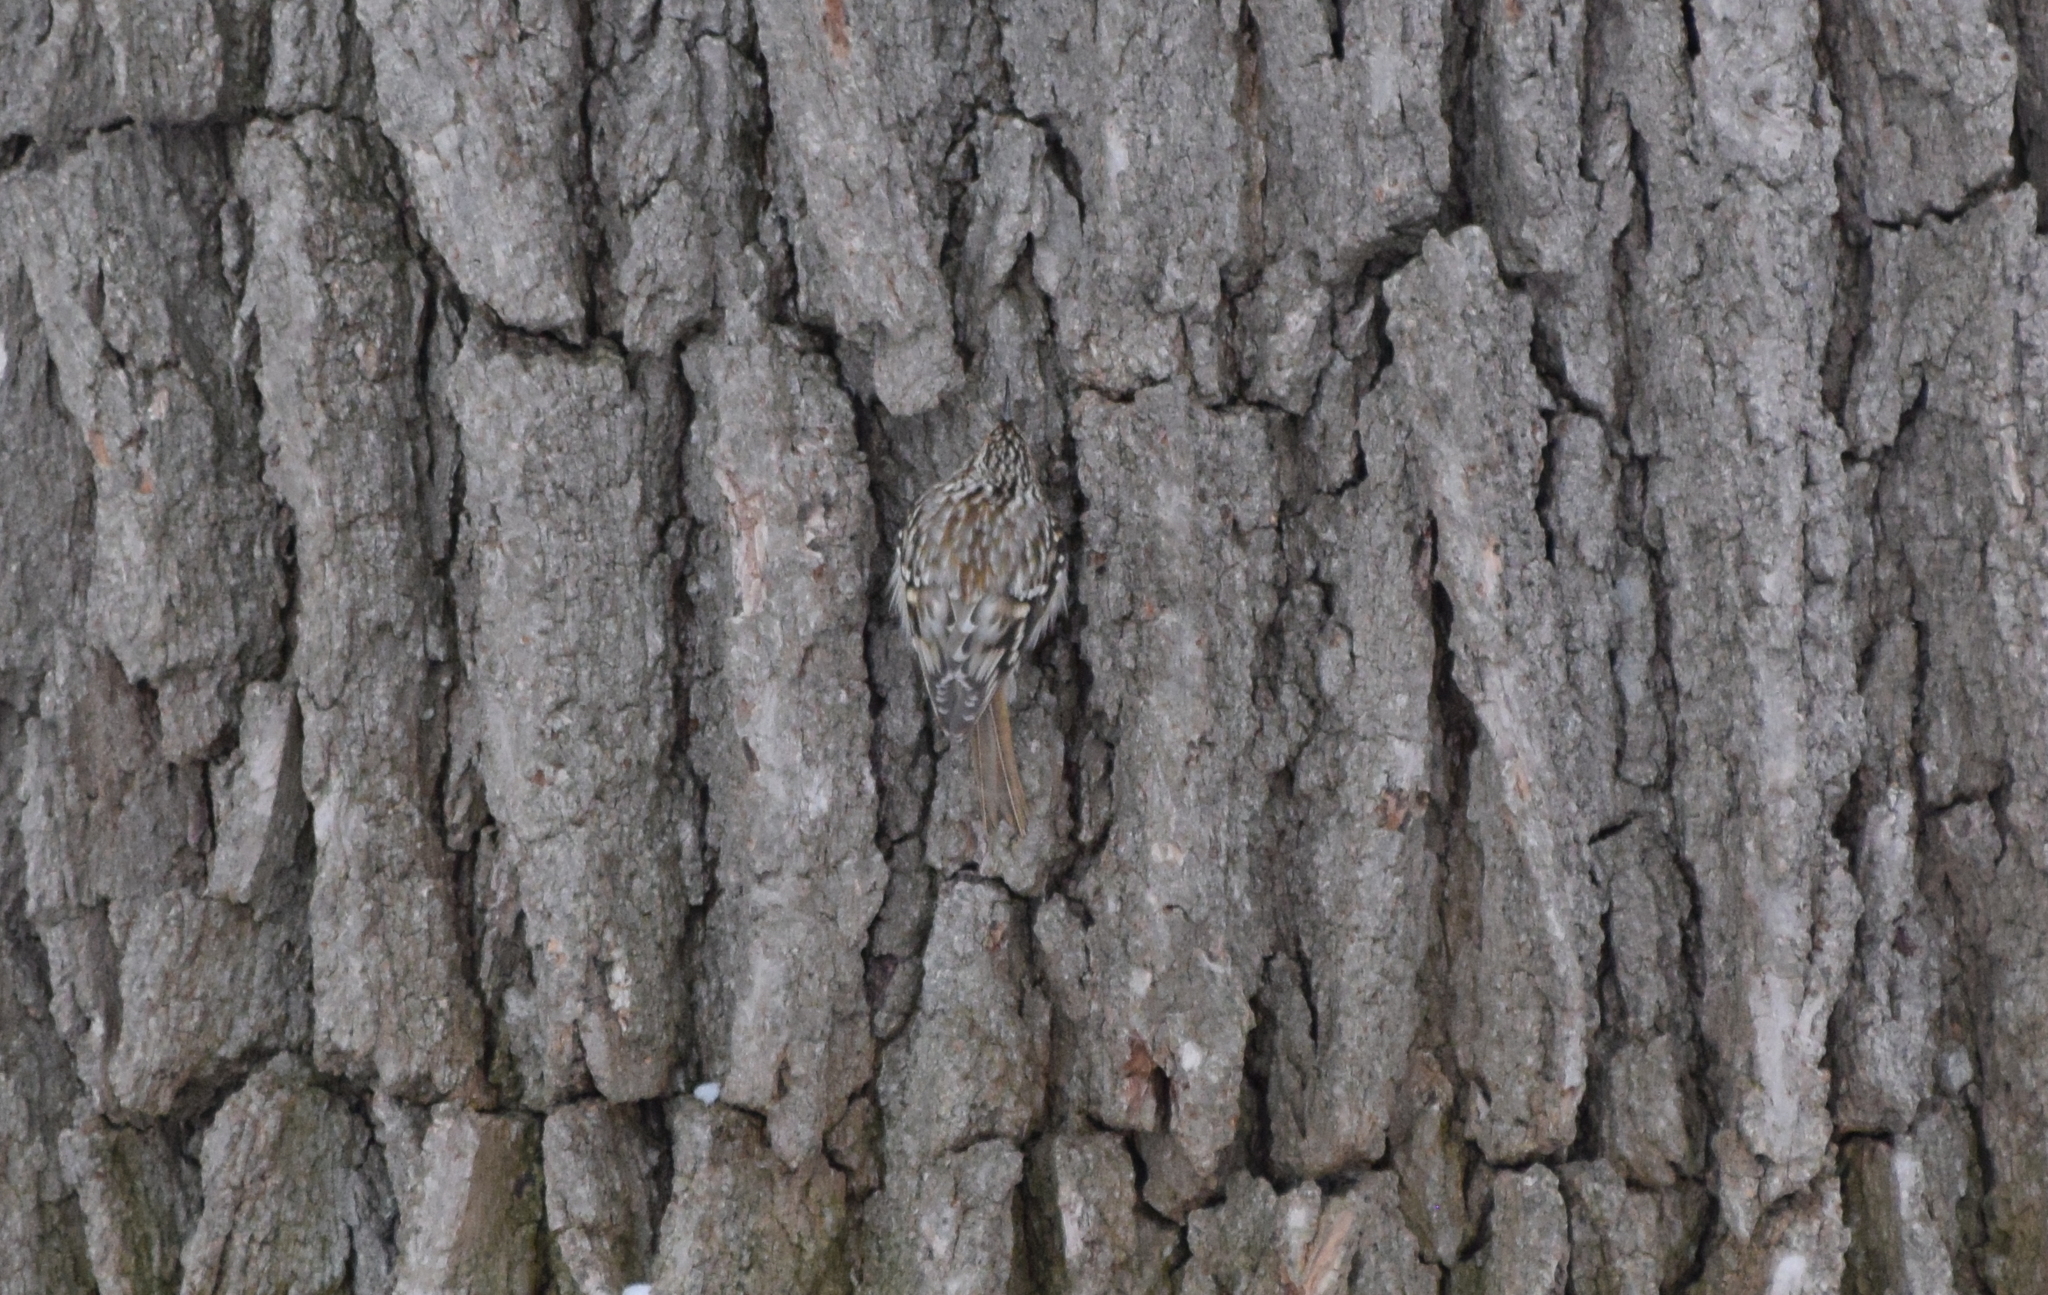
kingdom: Animalia
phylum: Chordata
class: Aves
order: Passeriformes
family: Certhiidae
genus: Certhia
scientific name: Certhia americana
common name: Brown creeper
